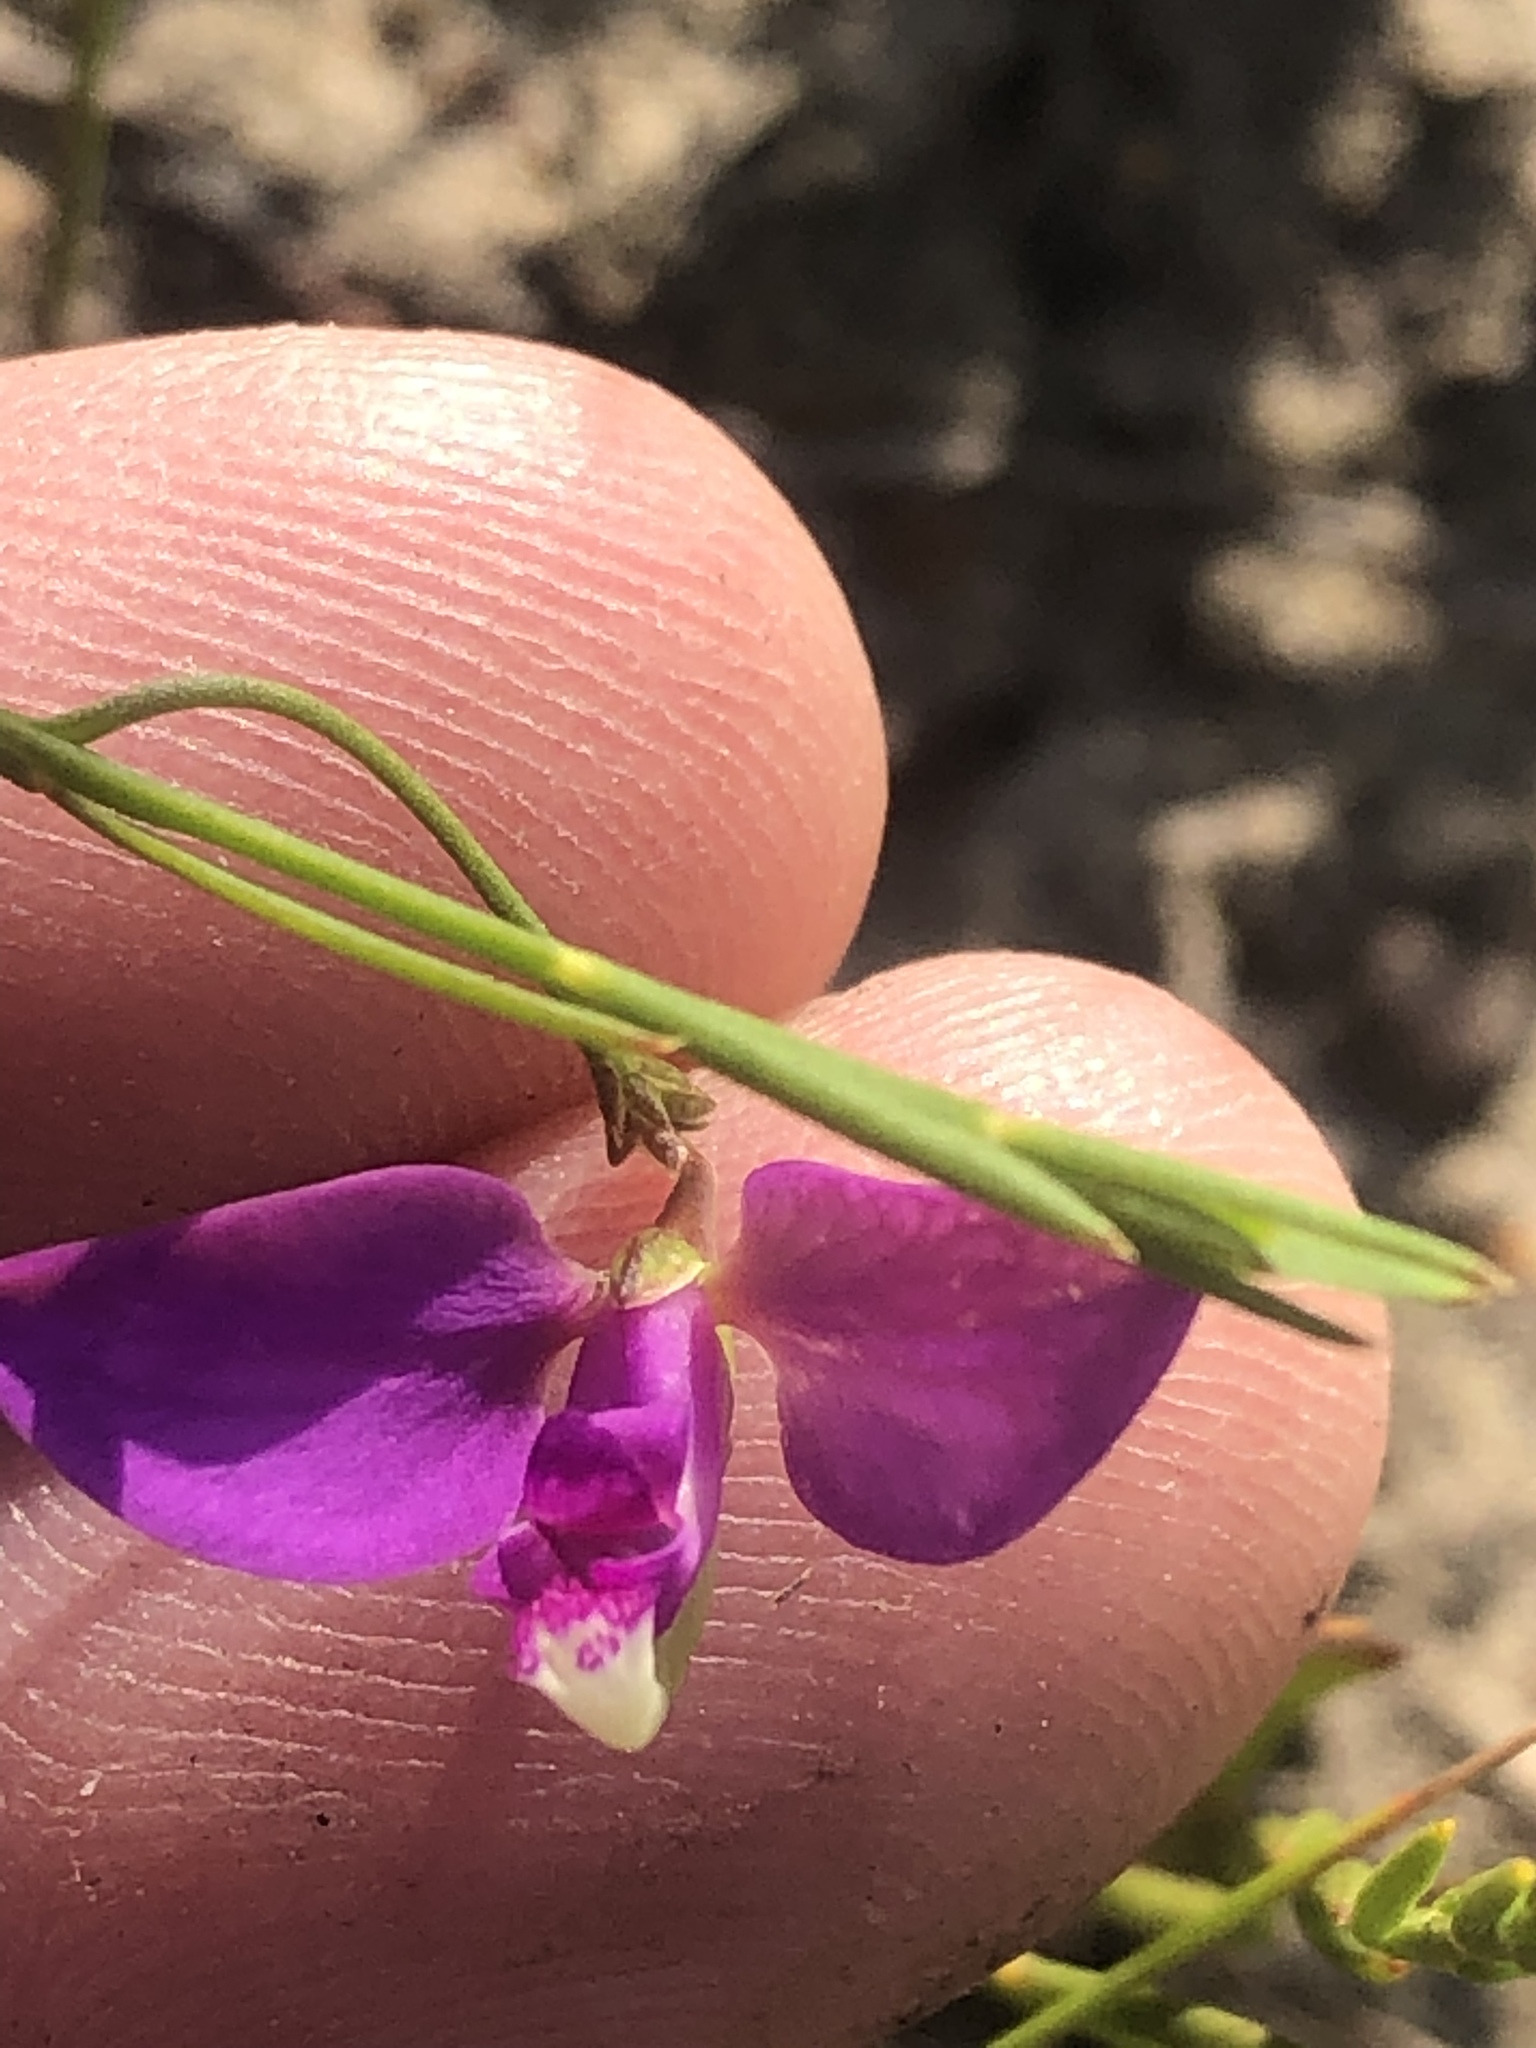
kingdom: Plantae
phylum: Tracheophyta
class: Magnoliopsida
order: Fabales
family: Polygalaceae
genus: Polygala
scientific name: Polygala refracta
